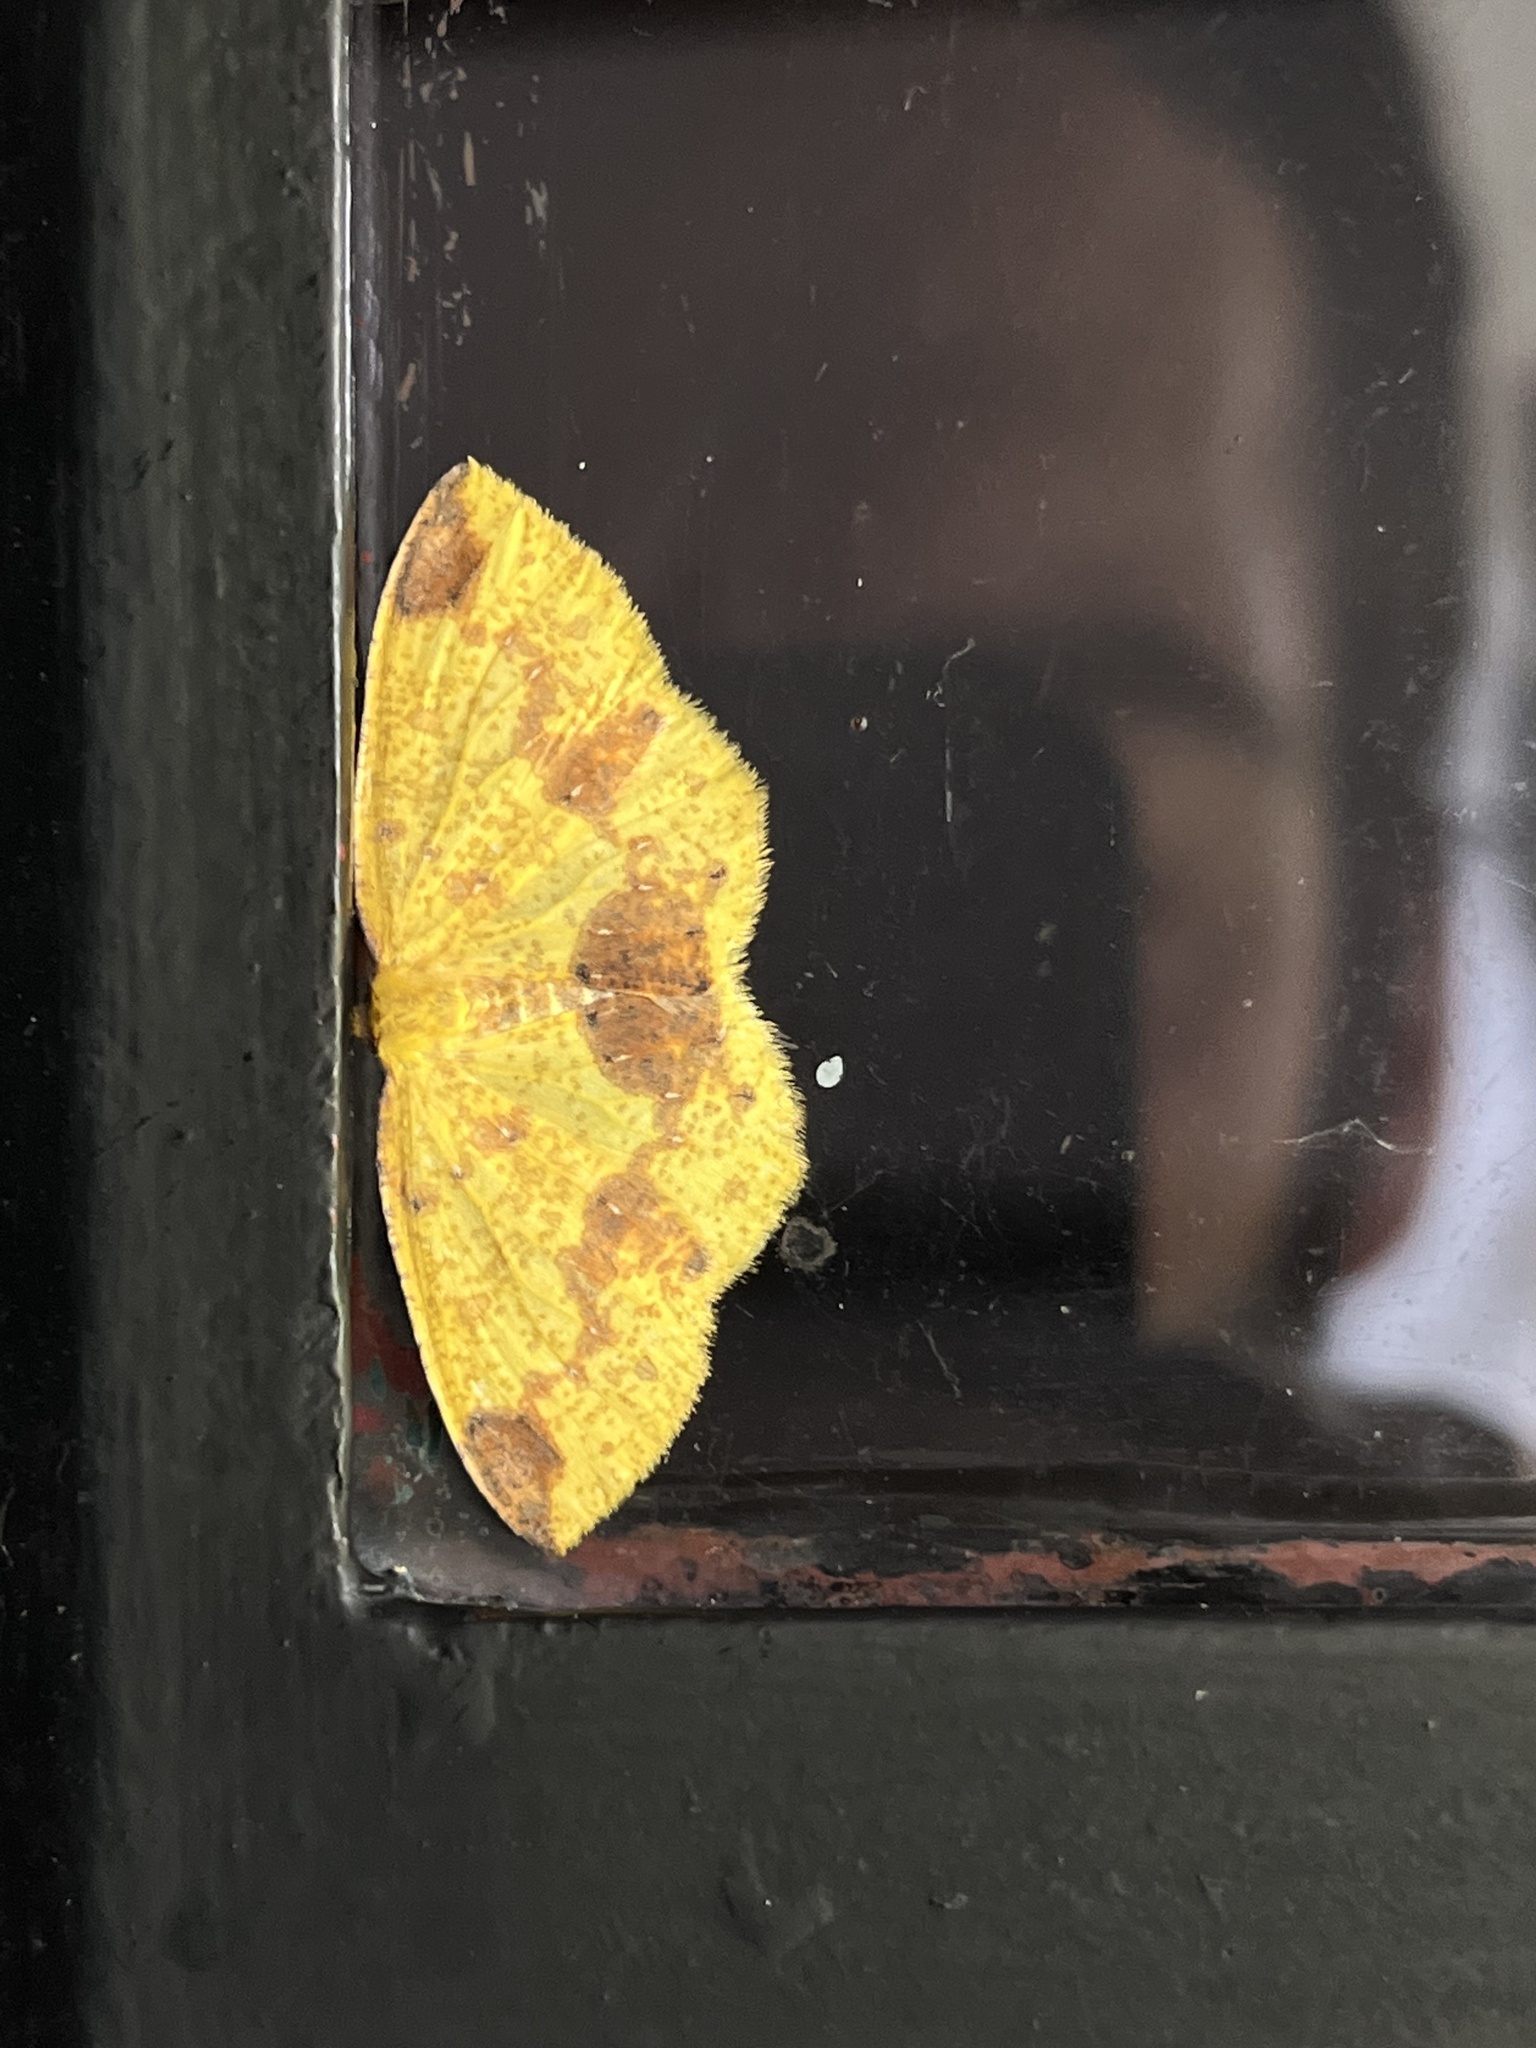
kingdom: Animalia
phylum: Arthropoda
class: Insecta
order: Lepidoptera
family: Geometridae
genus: Periclina
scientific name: Periclina apricaria
